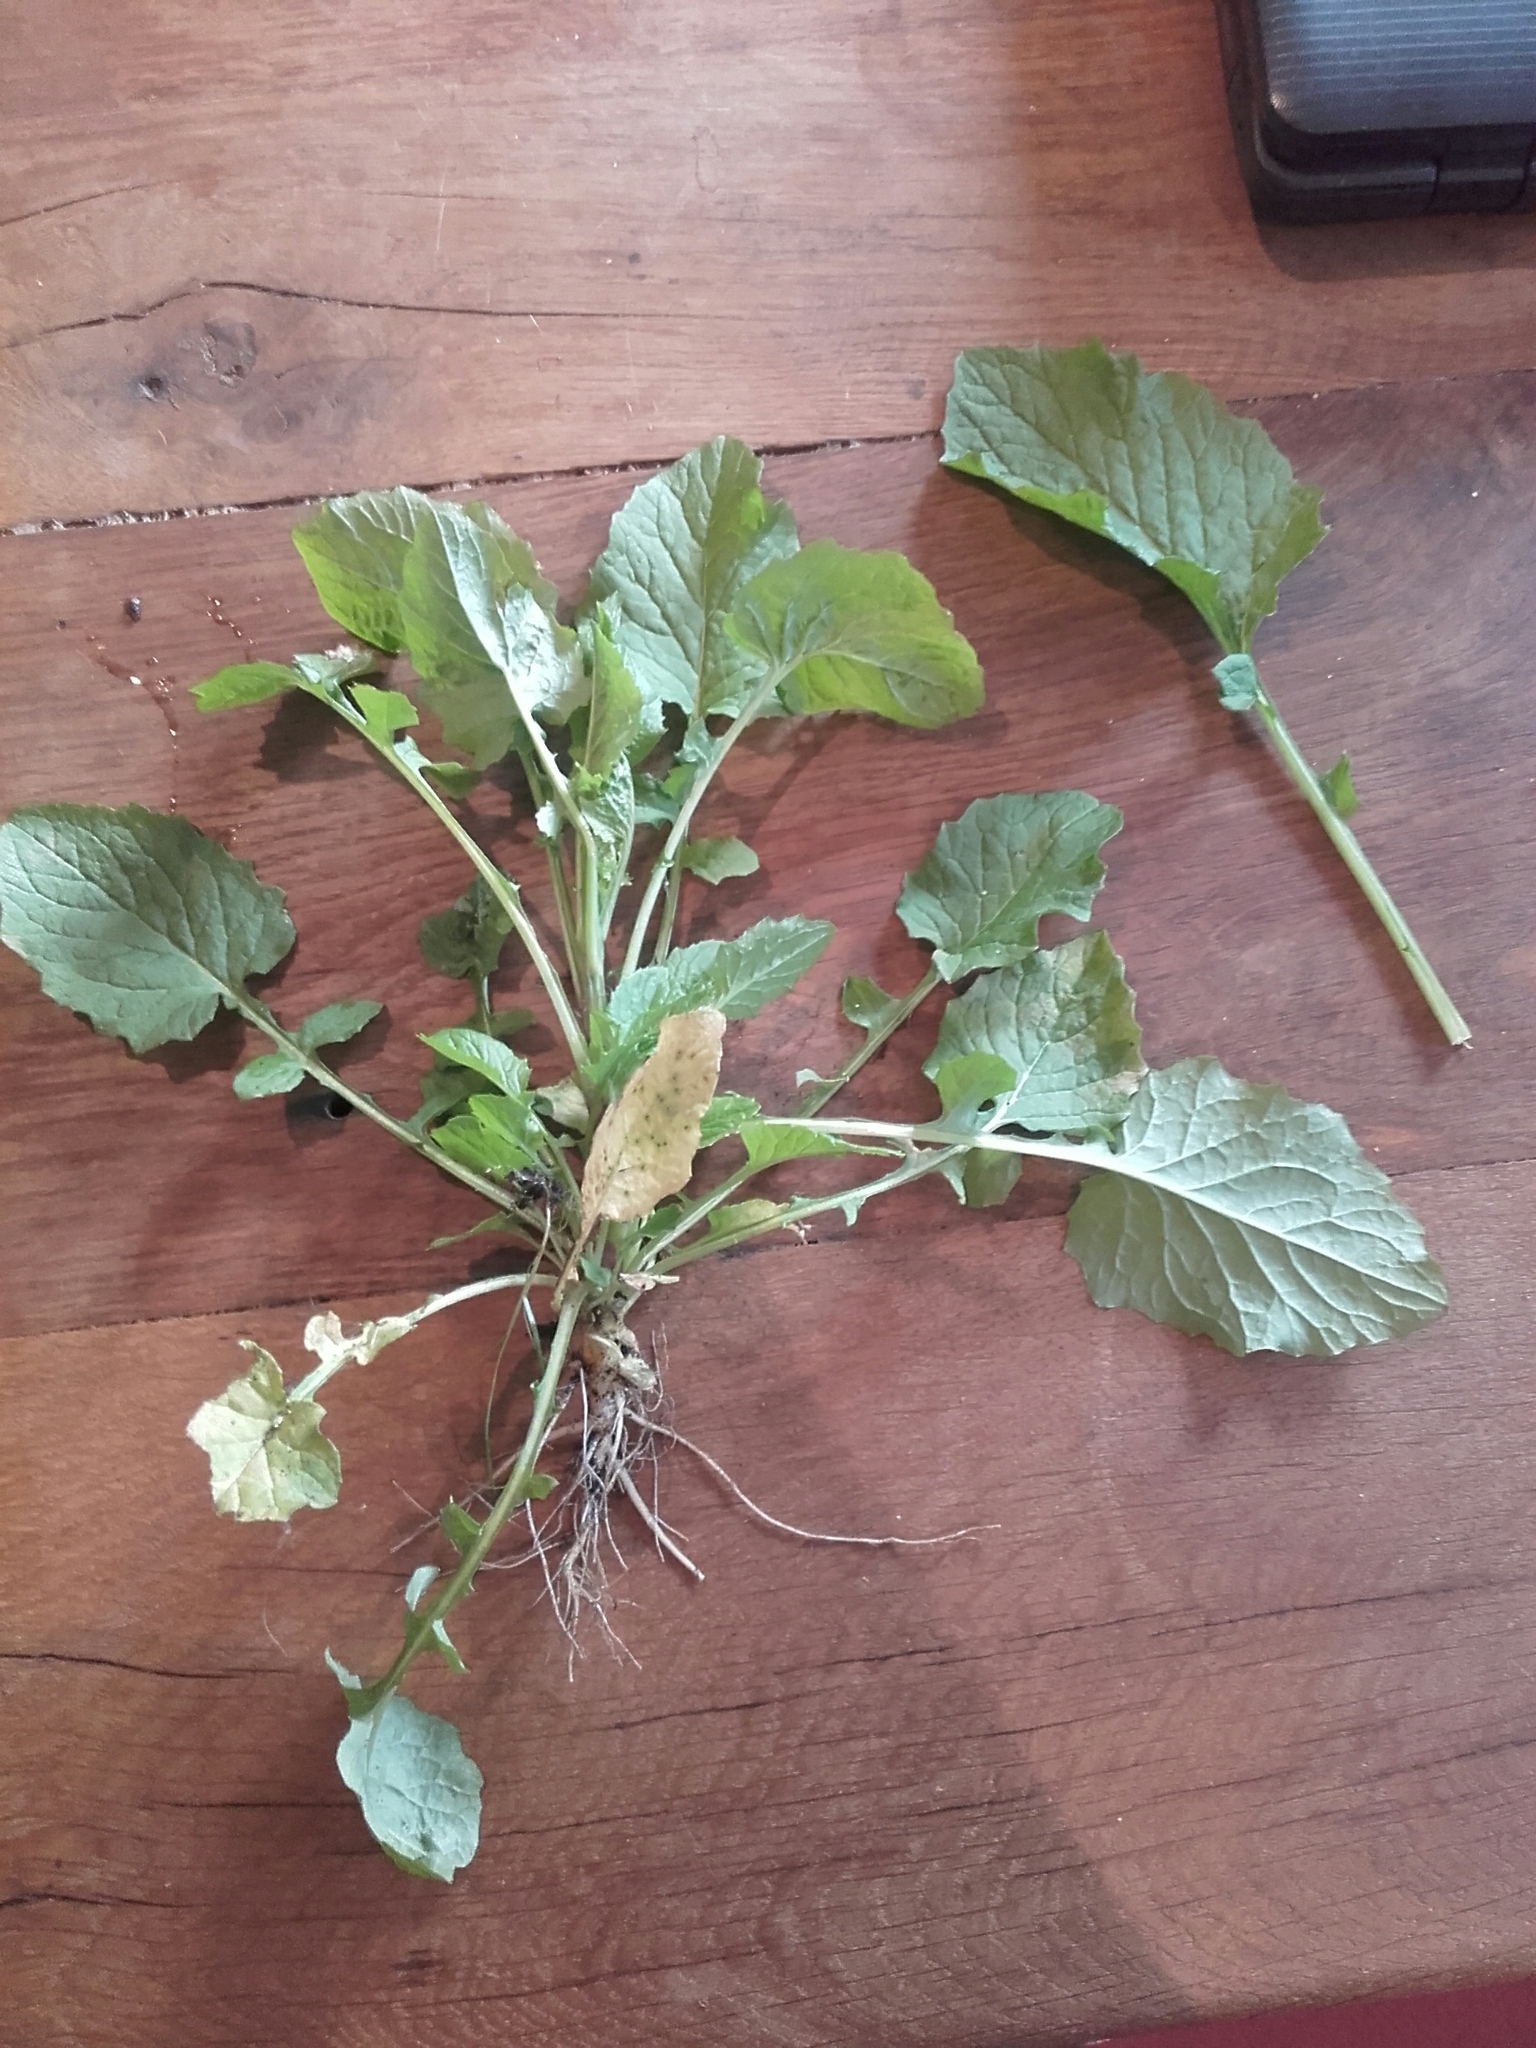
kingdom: Plantae
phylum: Tracheophyta
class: Magnoliopsida
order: Asterales
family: Asteraceae
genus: Lapsana
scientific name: Lapsana communis
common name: Nipplewort
